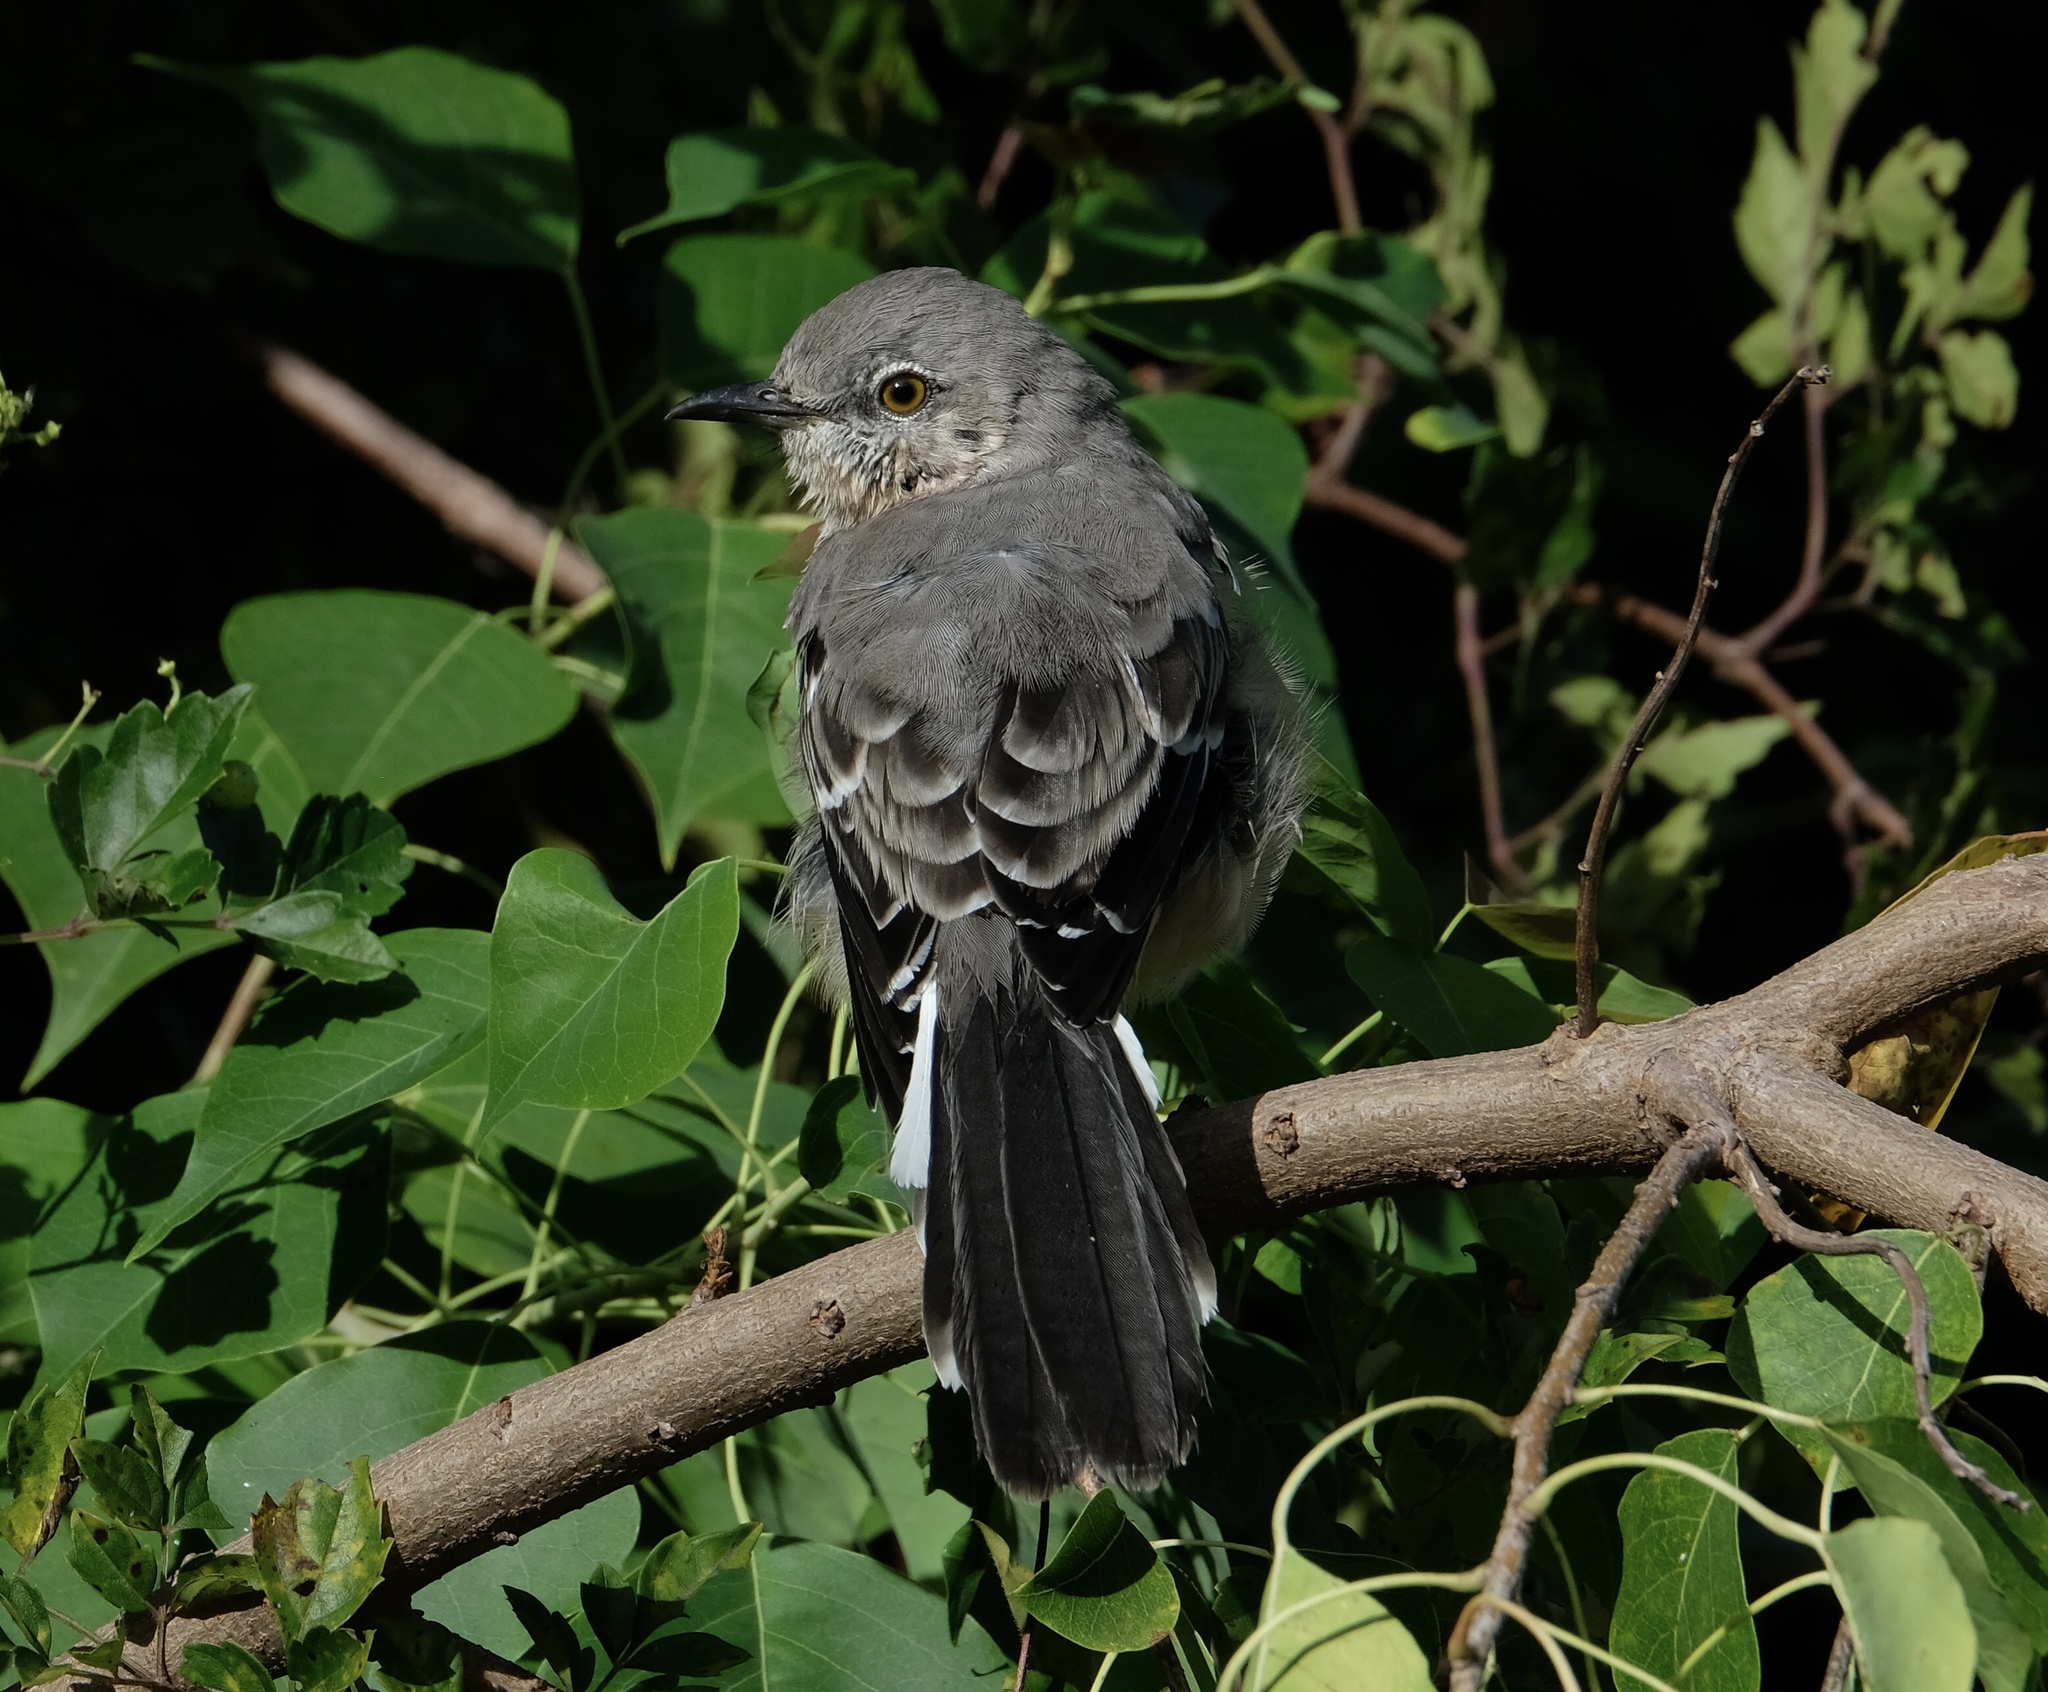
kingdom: Animalia
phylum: Chordata
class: Aves
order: Passeriformes
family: Mimidae
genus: Mimus
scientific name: Mimus polyglottos
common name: Northern mockingbird
